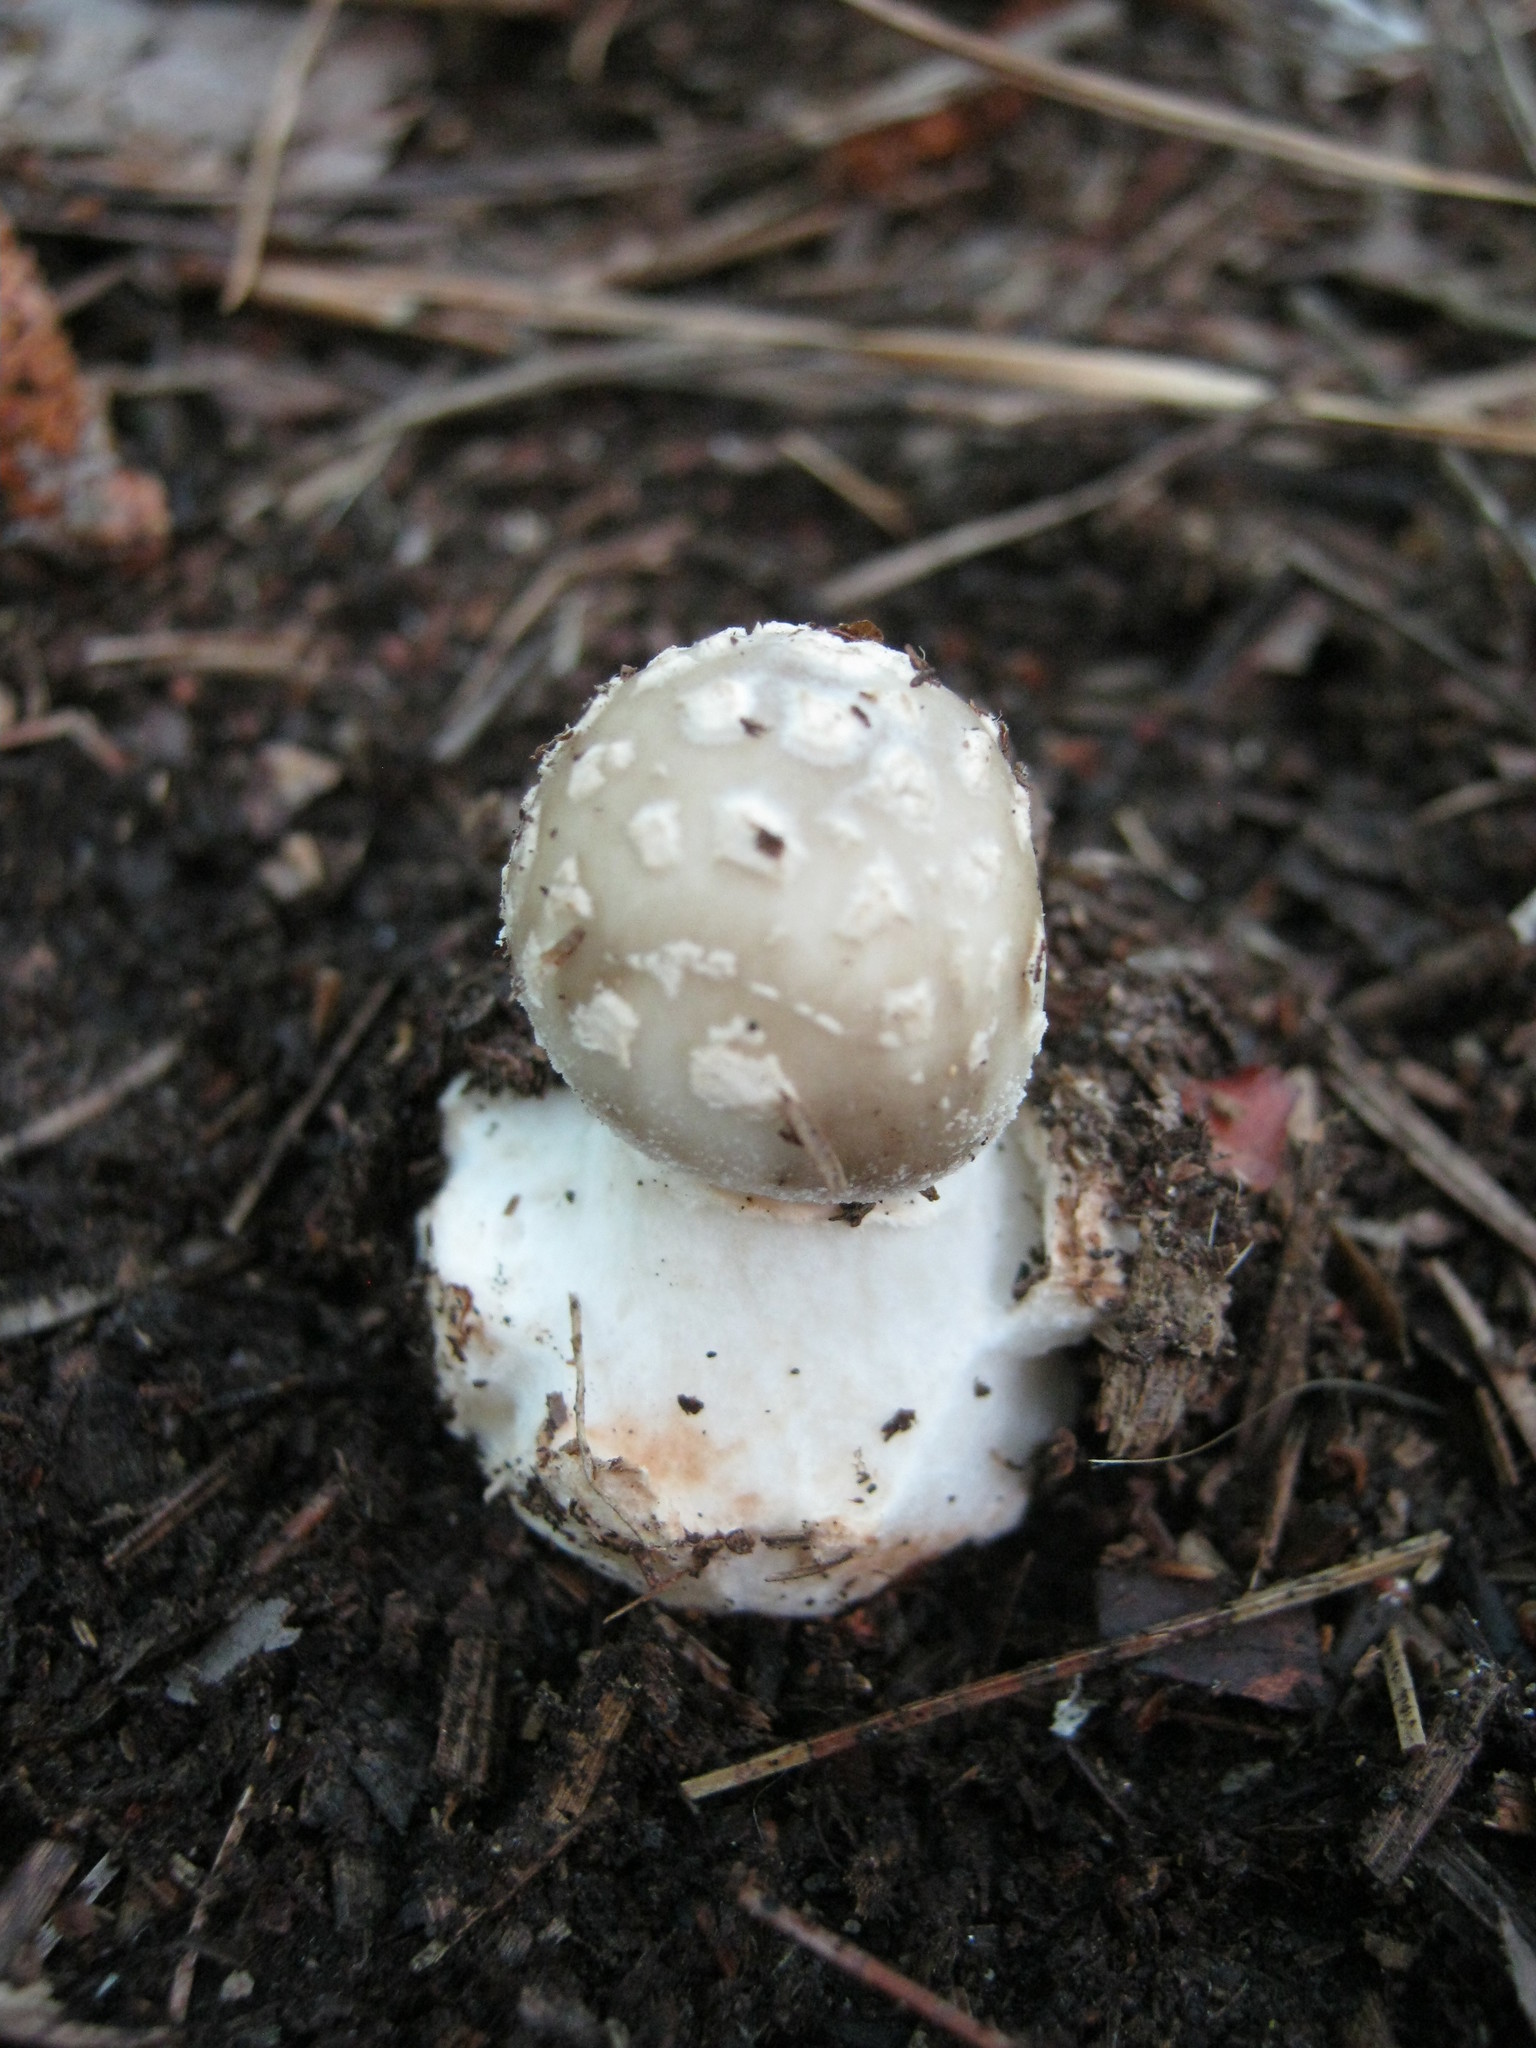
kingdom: Fungi
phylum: Basidiomycota
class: Agaricomycetes
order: Agaricales
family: Amanitaceae
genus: Amanita
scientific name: Amanita brunnescens
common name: Brown american star-footed amanita
